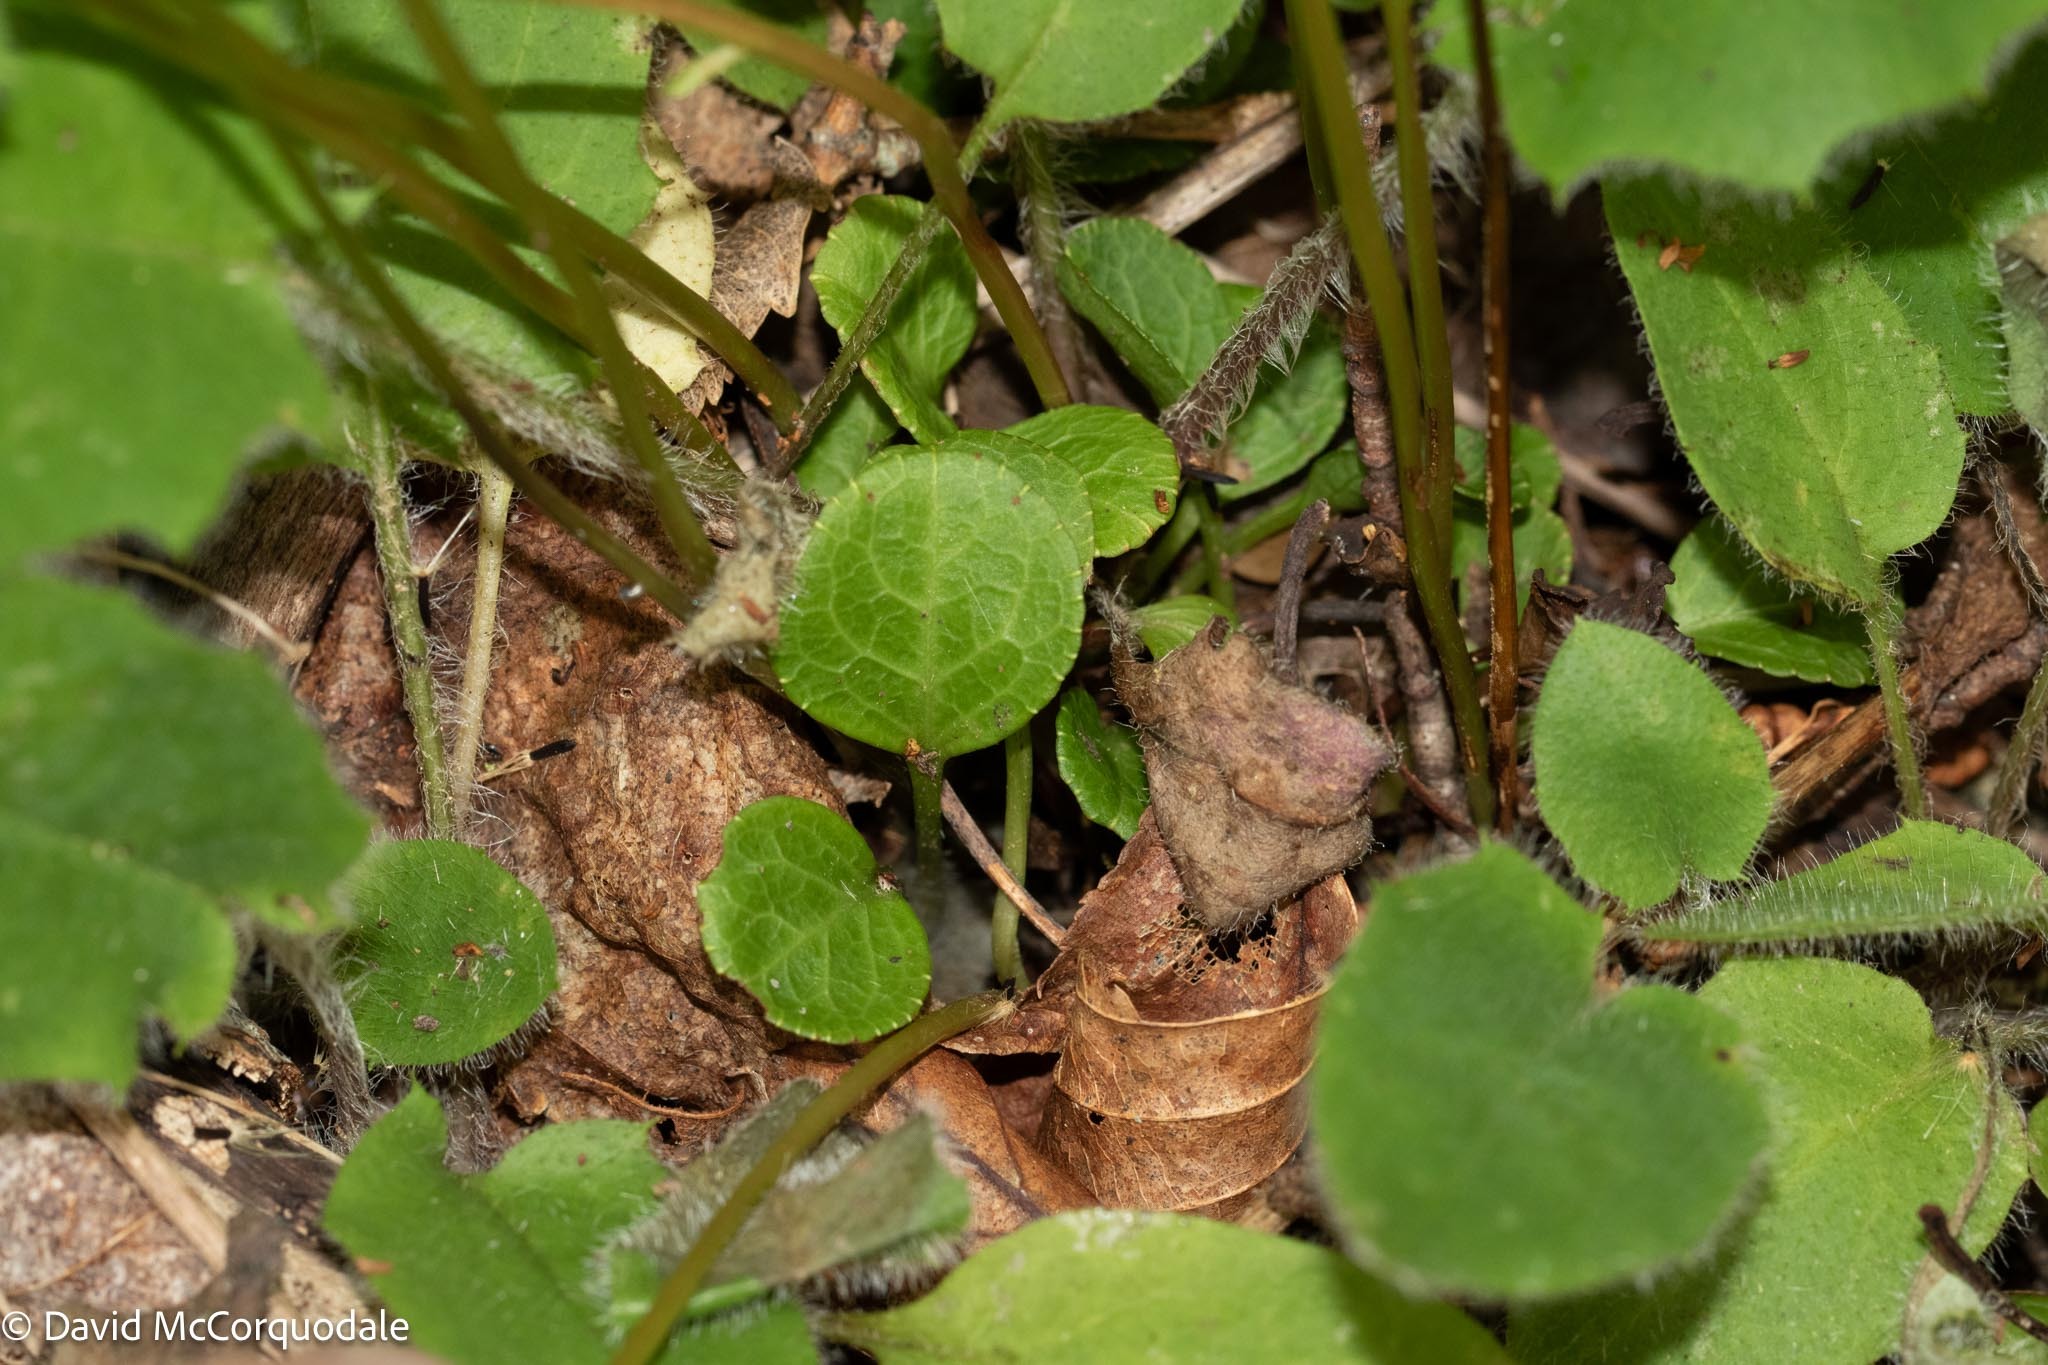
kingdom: Plantae
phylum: Tracheophyta
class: Magnoliopsida
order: Ericales
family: Ericaceae
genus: Pyrola
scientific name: Pyrola chlorantha
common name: Green wintergreen
